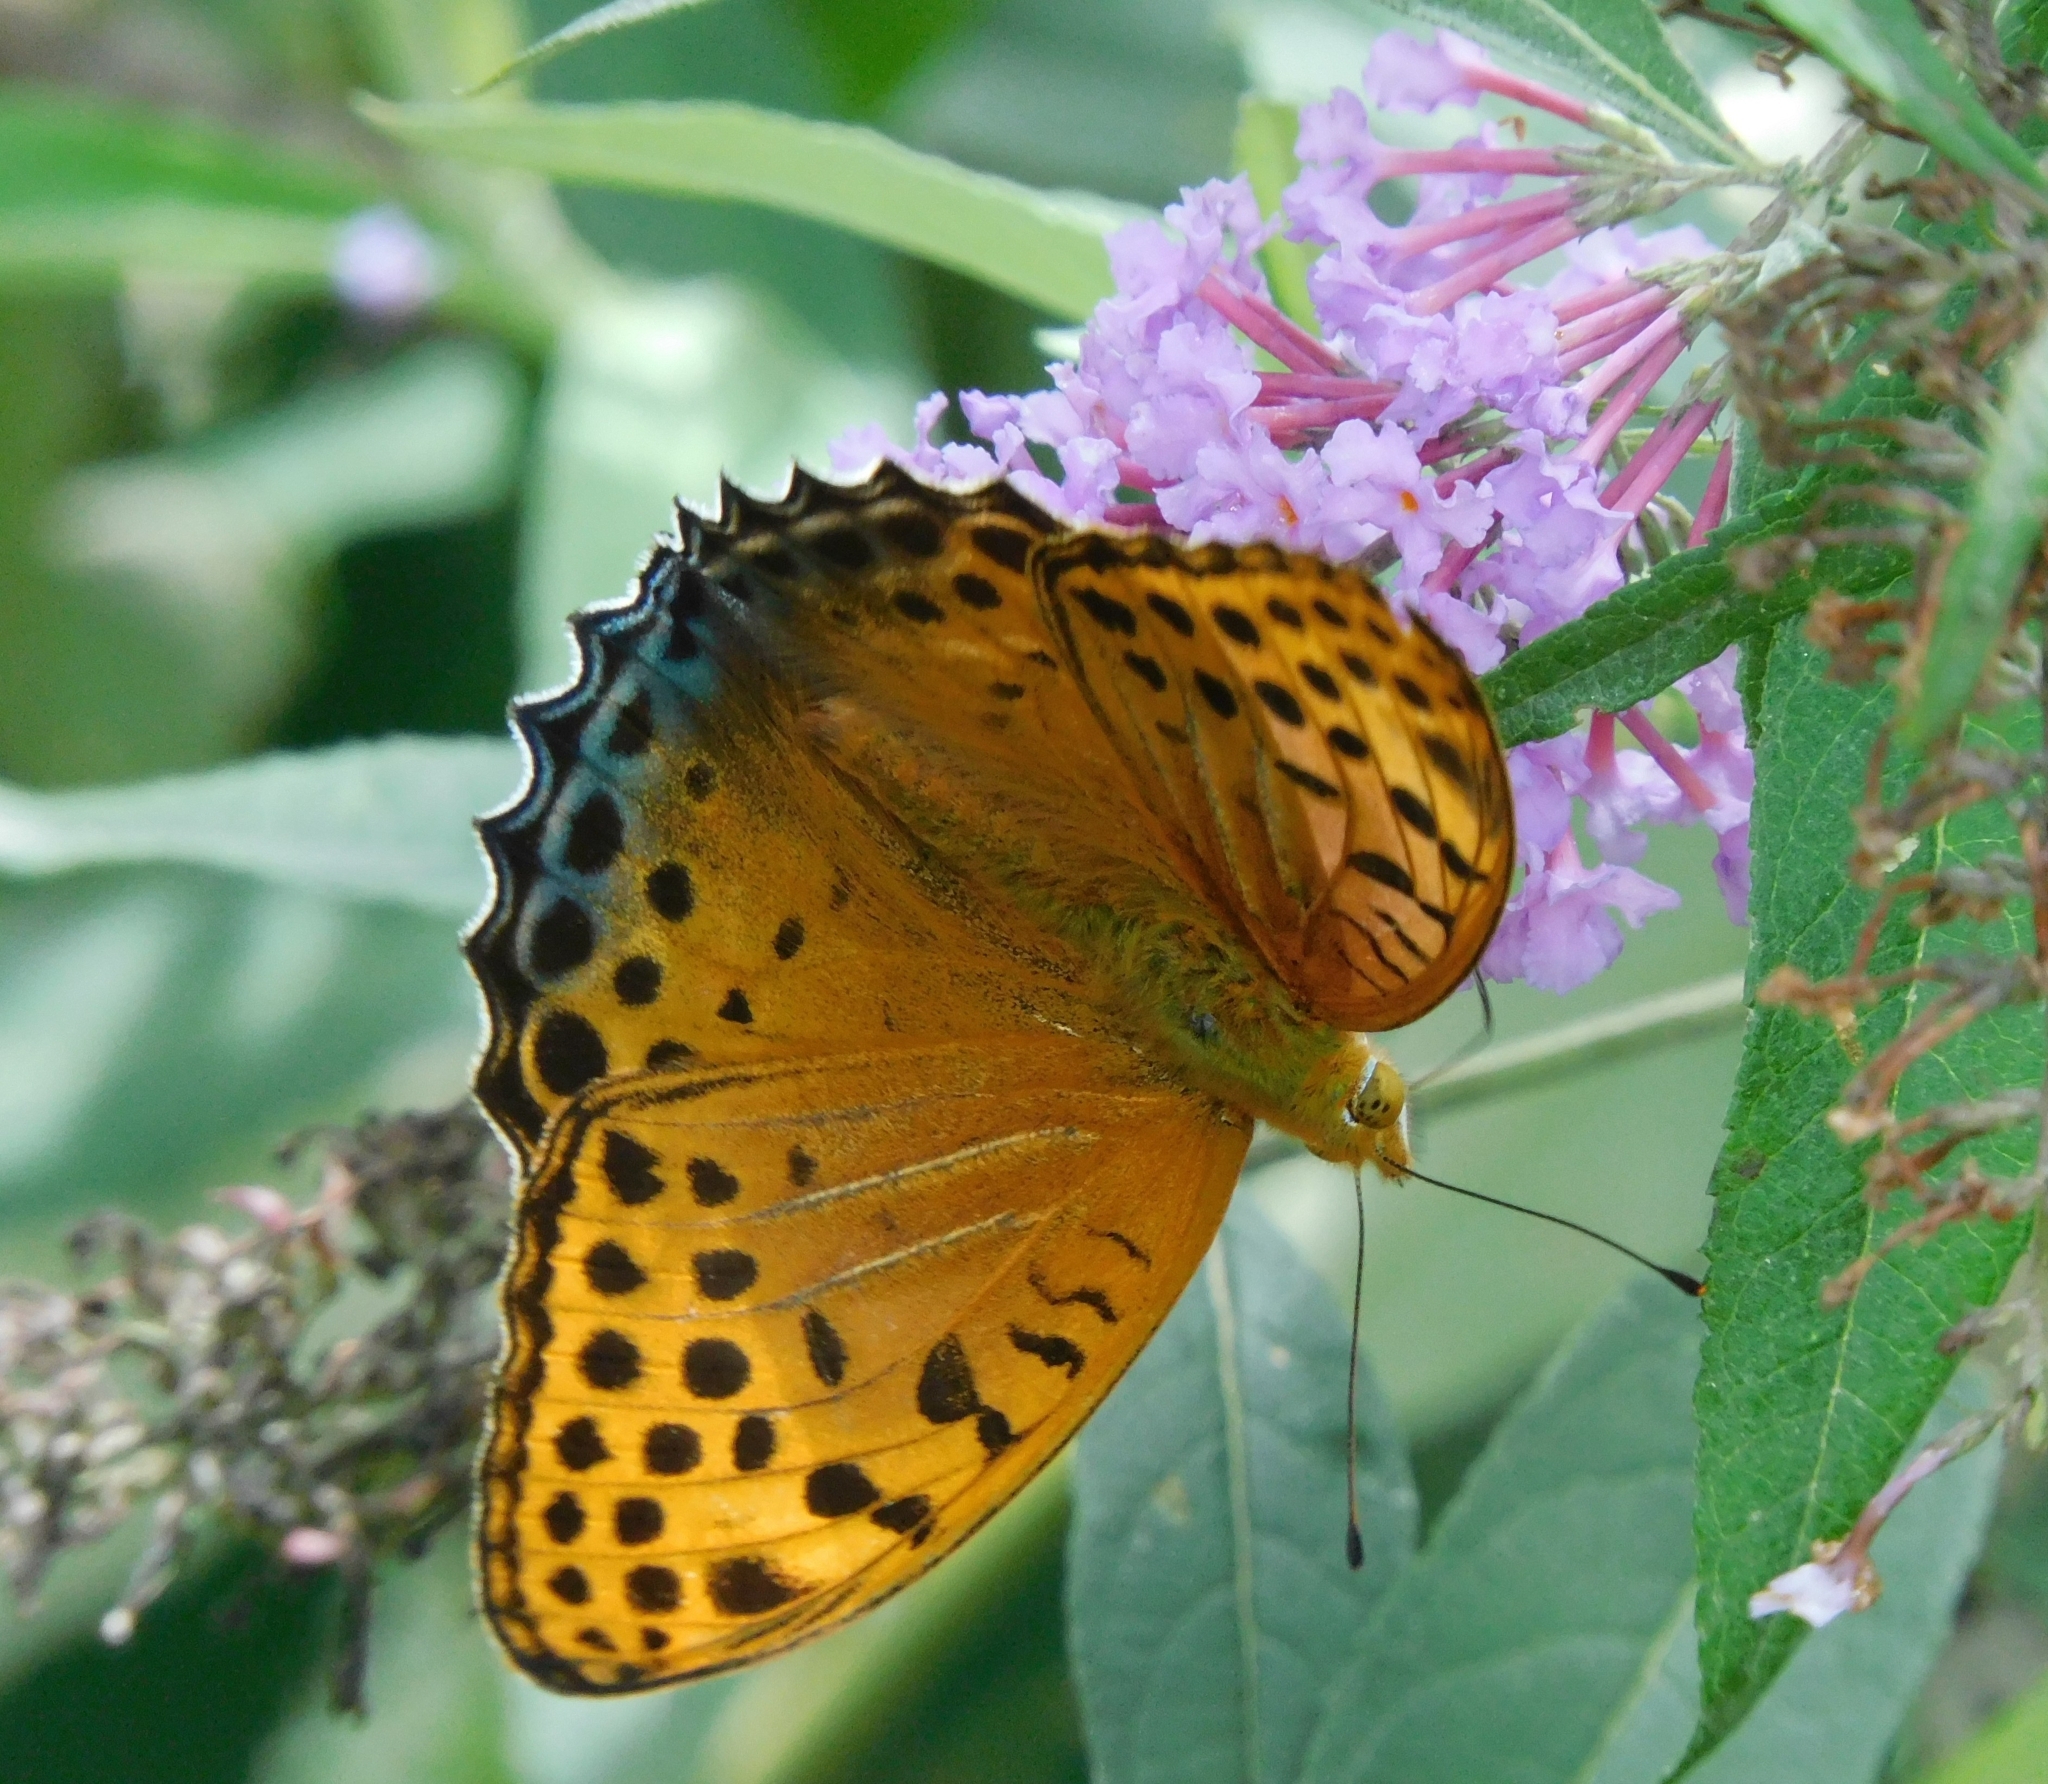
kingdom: Animalia
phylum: Arthropoda
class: Insecta
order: Lepidoptera
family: Nymphalidae
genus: Childrena
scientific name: Childrena childreni
